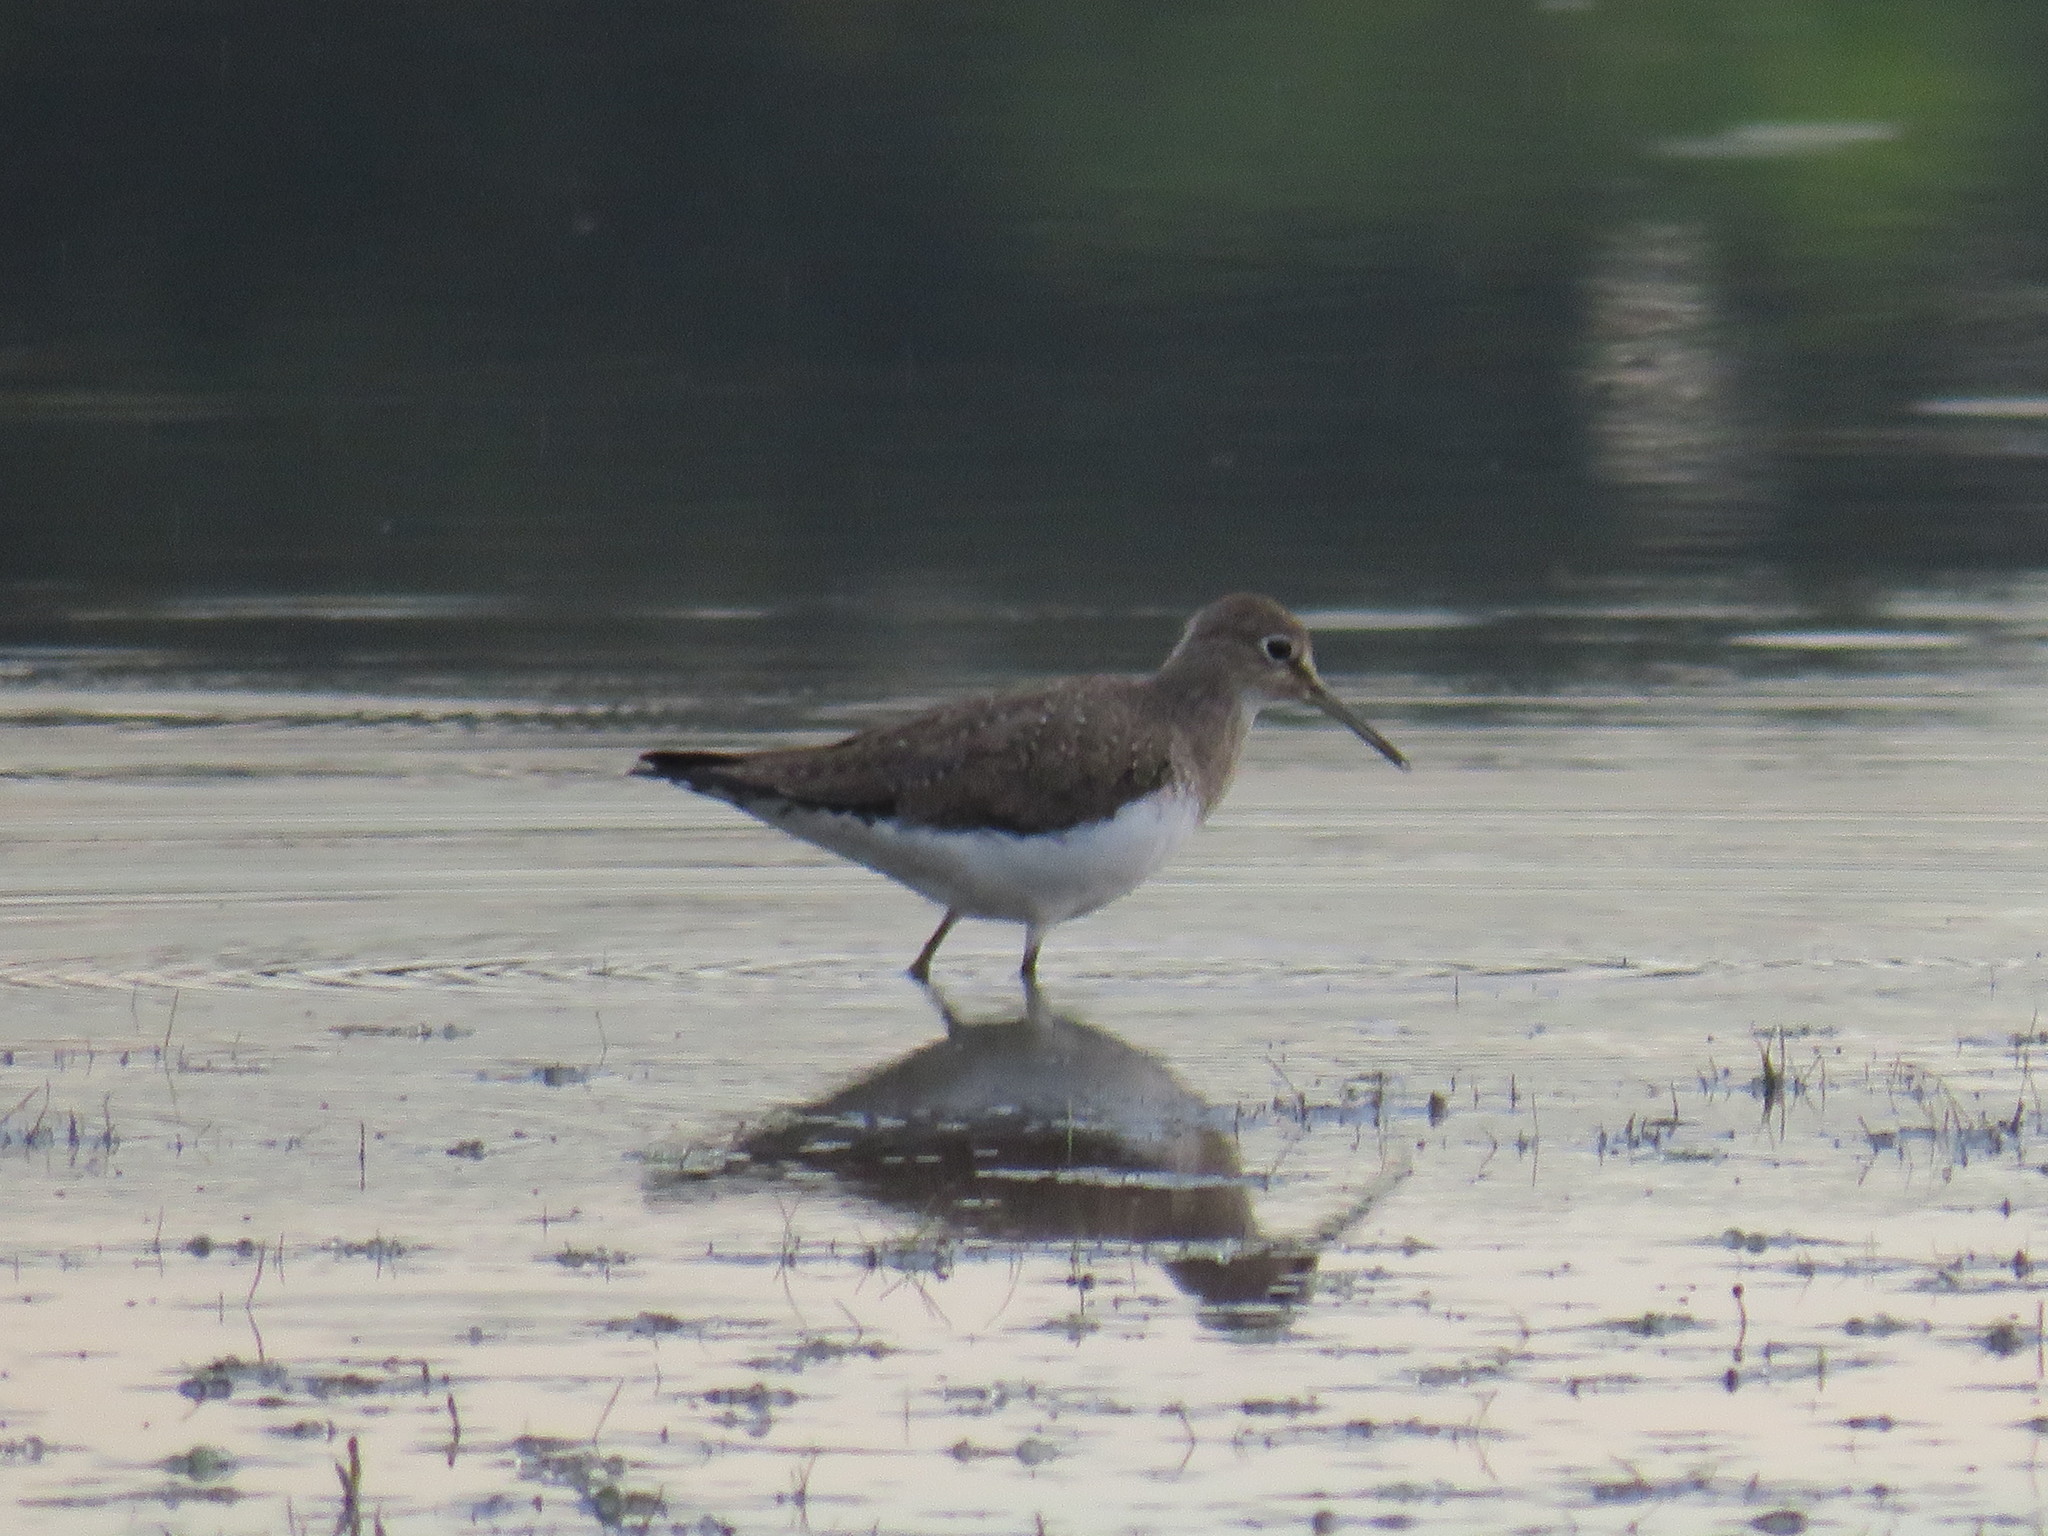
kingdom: Animalia
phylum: Chordata
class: Aves
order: Charadriiformes
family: Scolopacidae
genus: Tringa
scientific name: Tringa solitaria
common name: Solitary sandpiper
